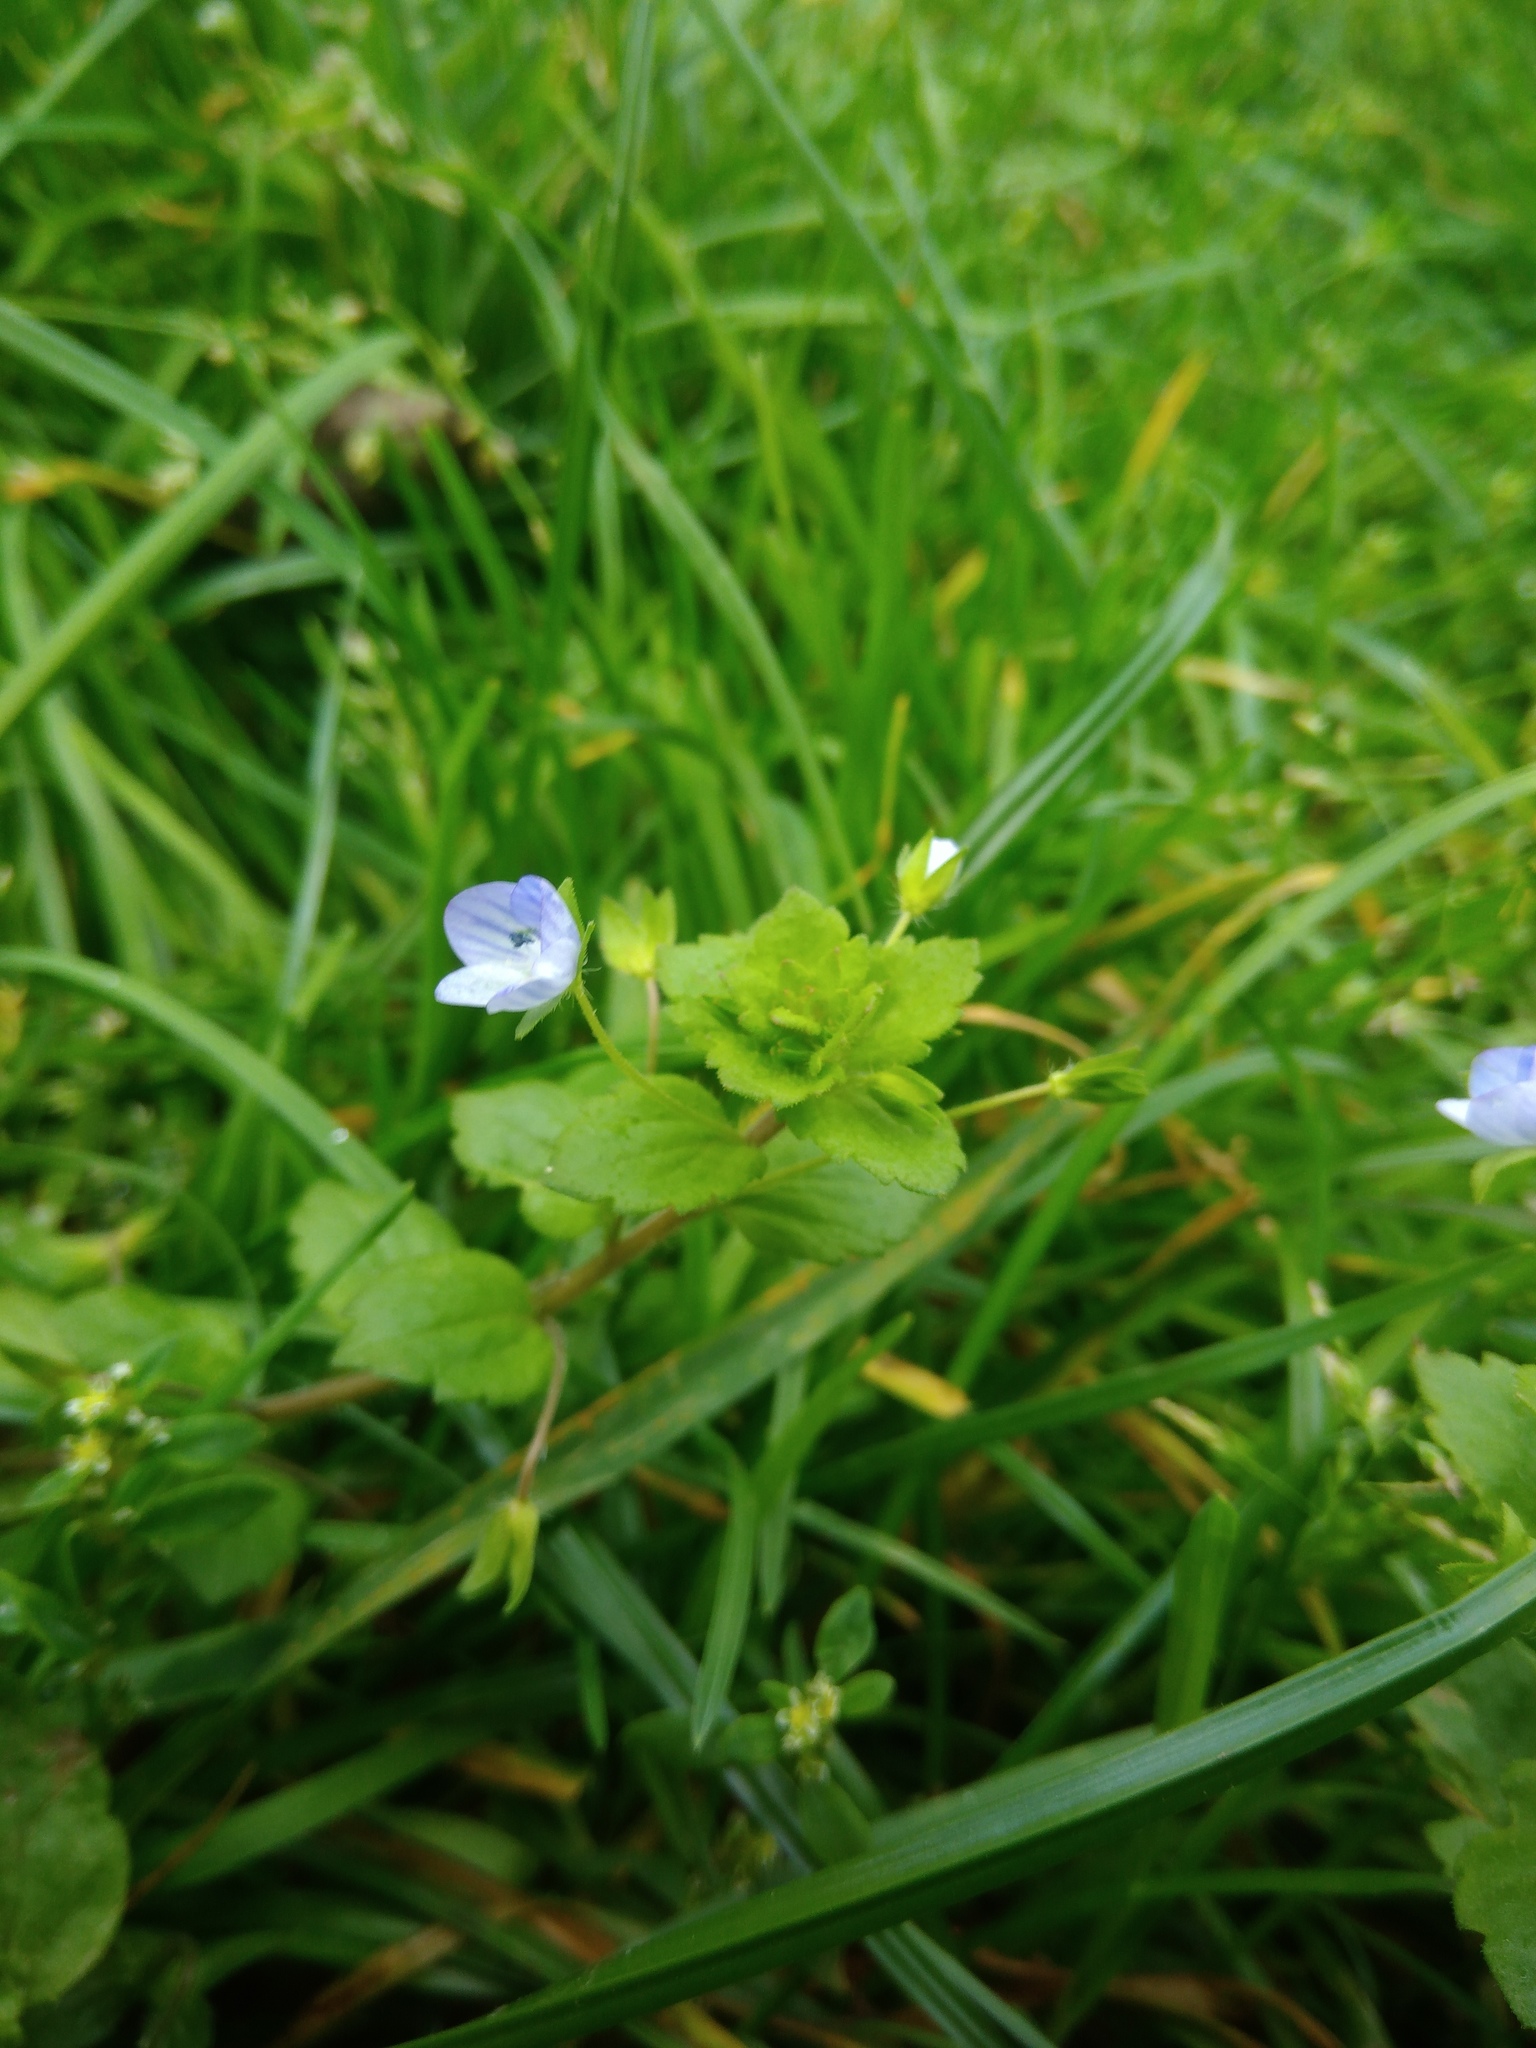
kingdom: Plantae
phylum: Tracheophyta
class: Magnoliopsida
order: Lamiales
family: Plantaginaceae
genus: Veronica
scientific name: Veronica persica
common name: Common field-speedwell
